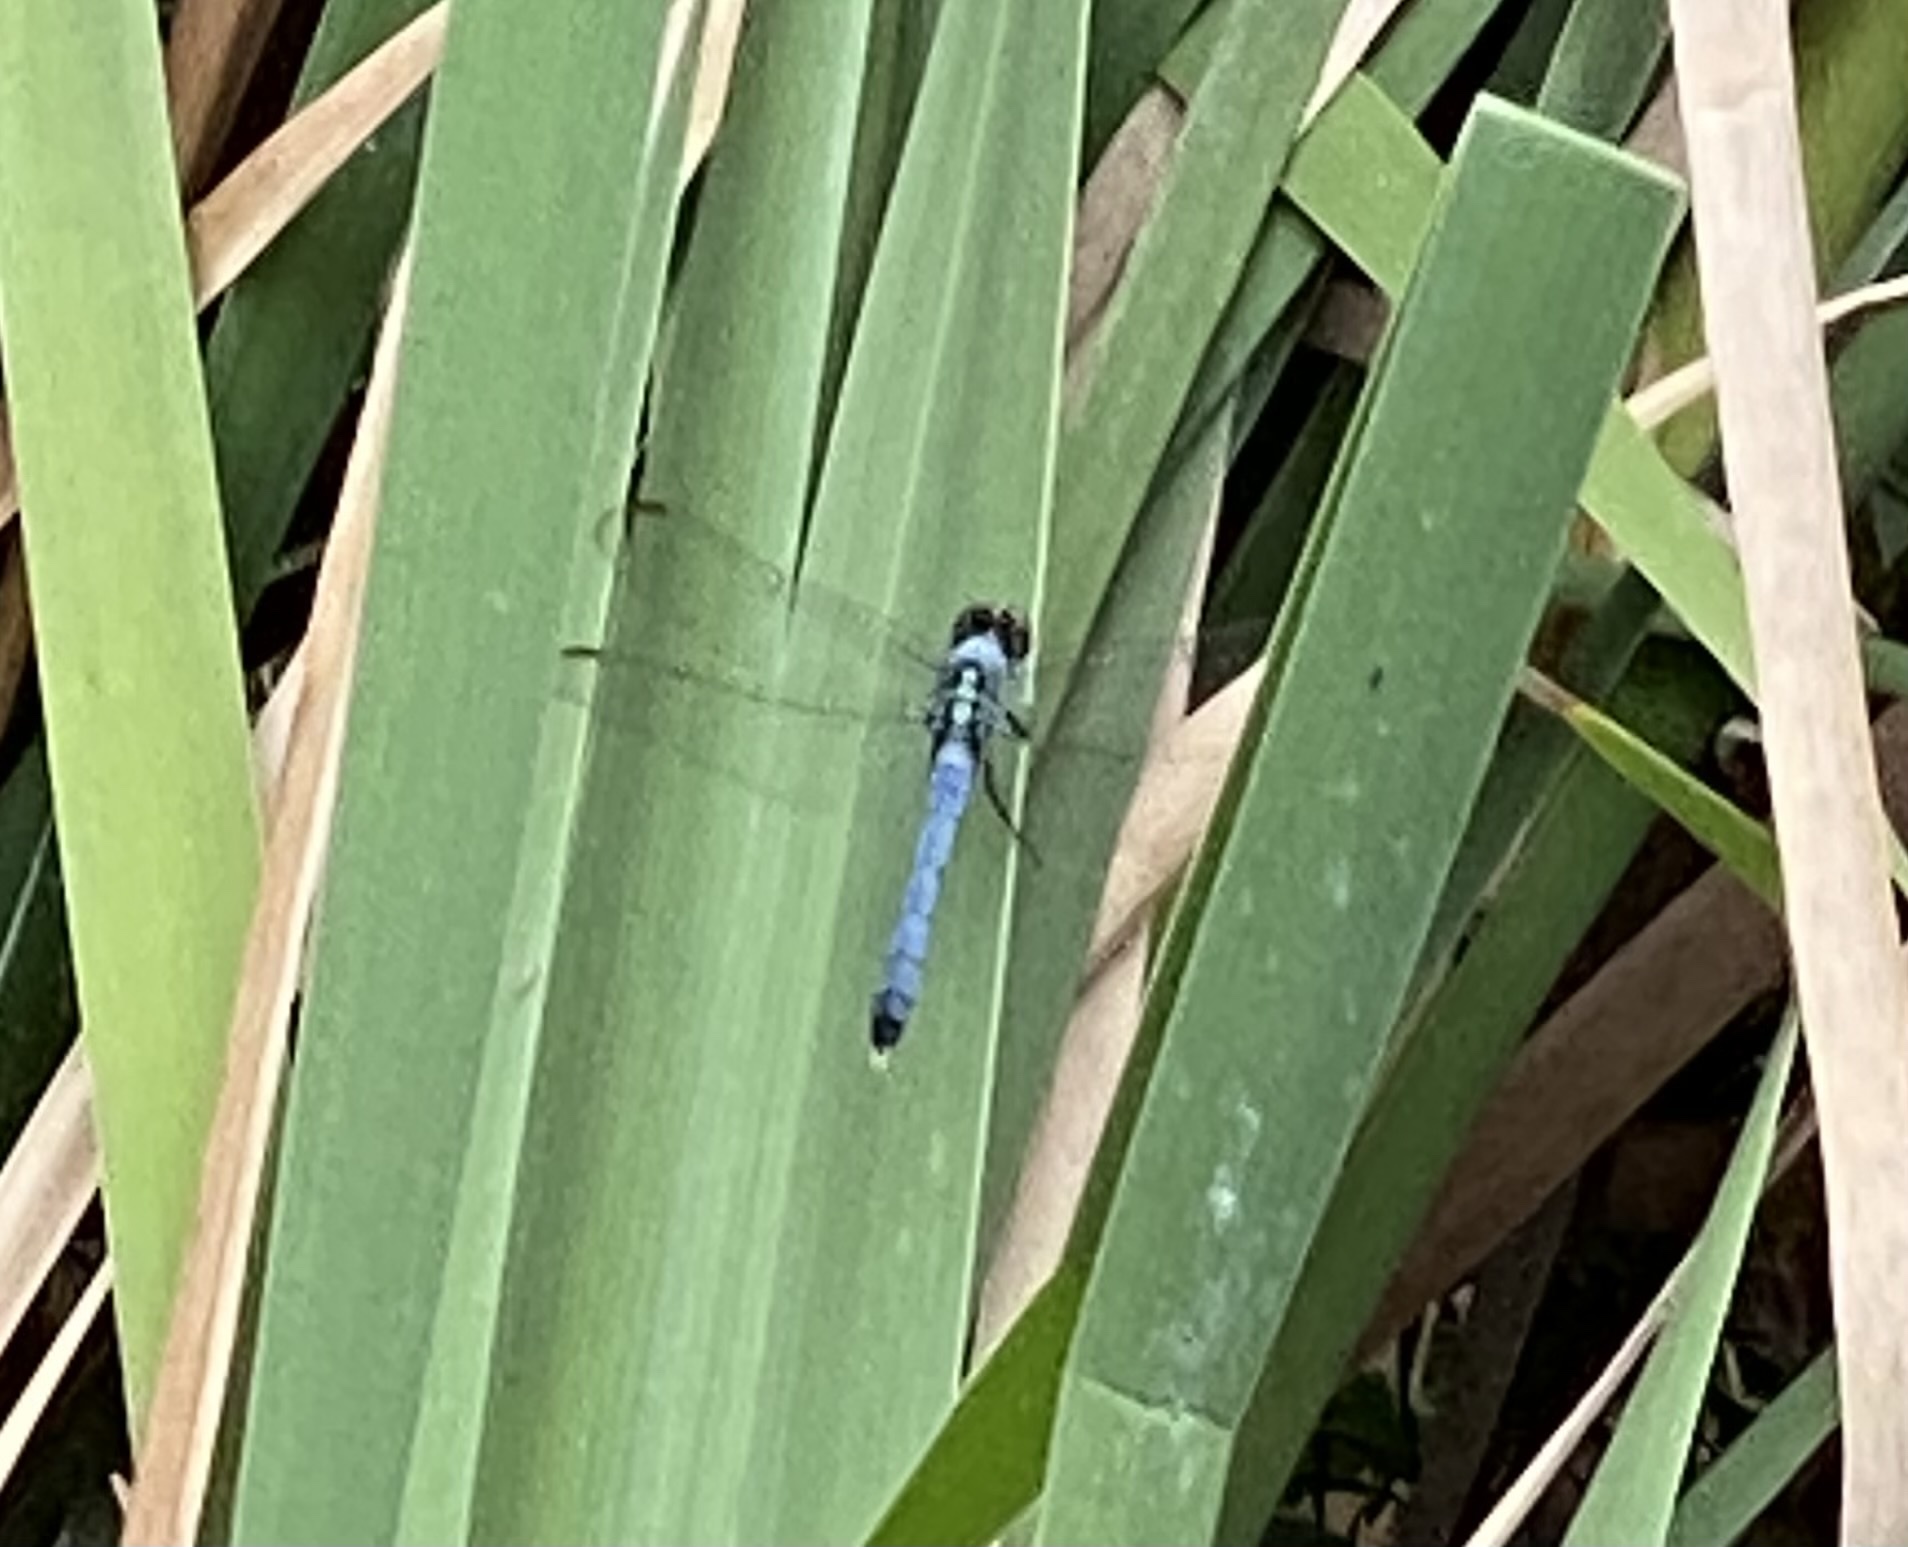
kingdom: Animalia
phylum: Arthropoda
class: Insecta
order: Odonata
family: Libellulidae
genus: Erythemis
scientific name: Erythemis simplicicollis
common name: Eastern pondhawk
